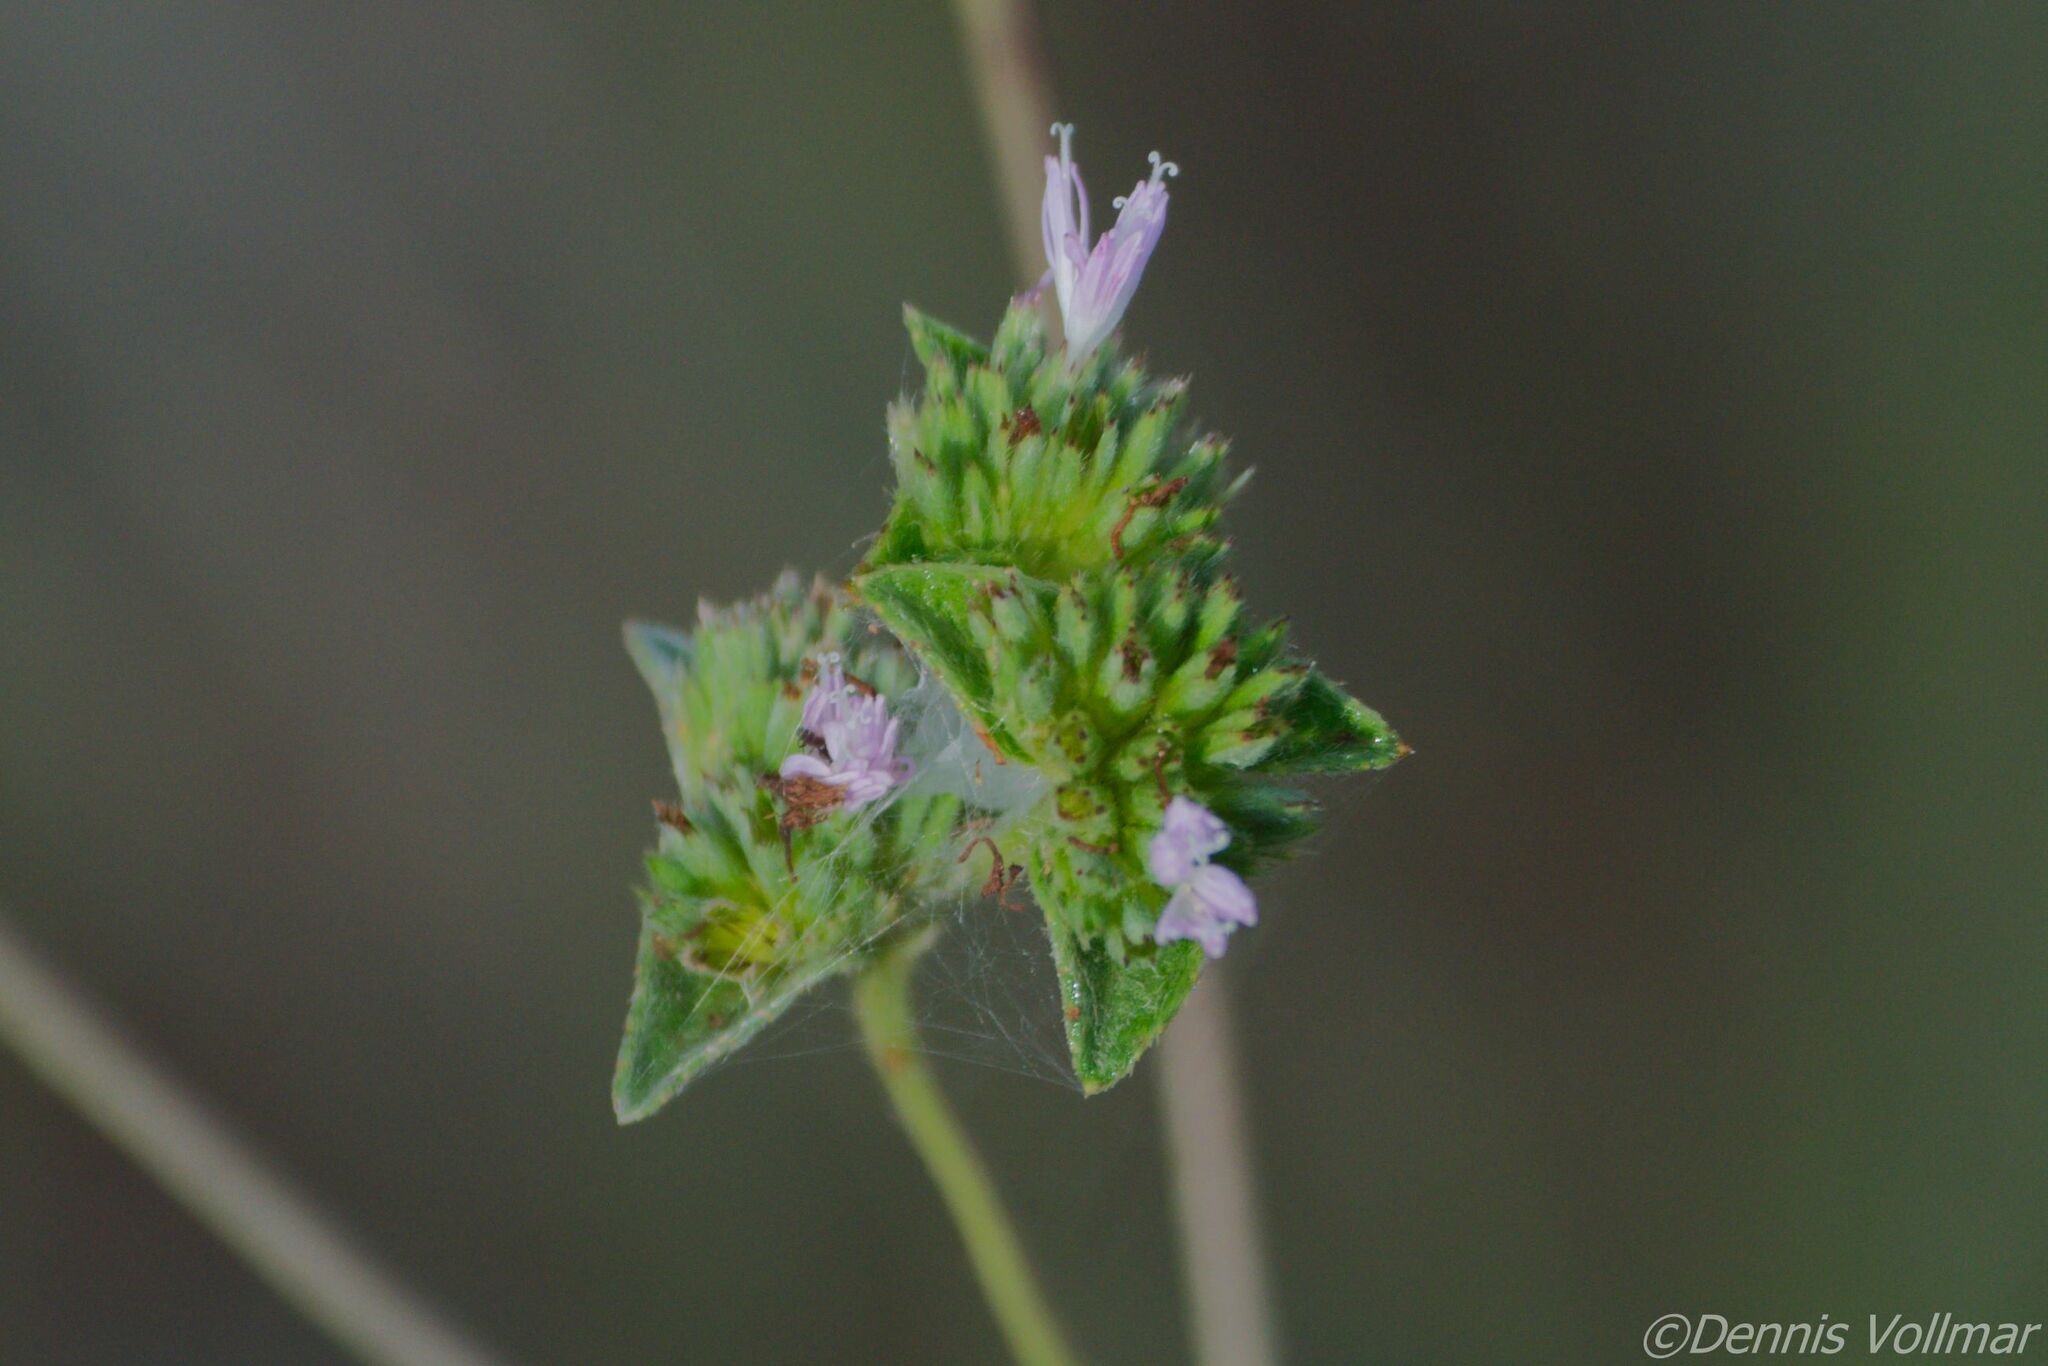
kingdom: Plantae
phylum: Tracheophyta
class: Magnoliopsida
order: Asterales
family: Asteraceae
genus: Elephantopus
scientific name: Elephantopus elatus
